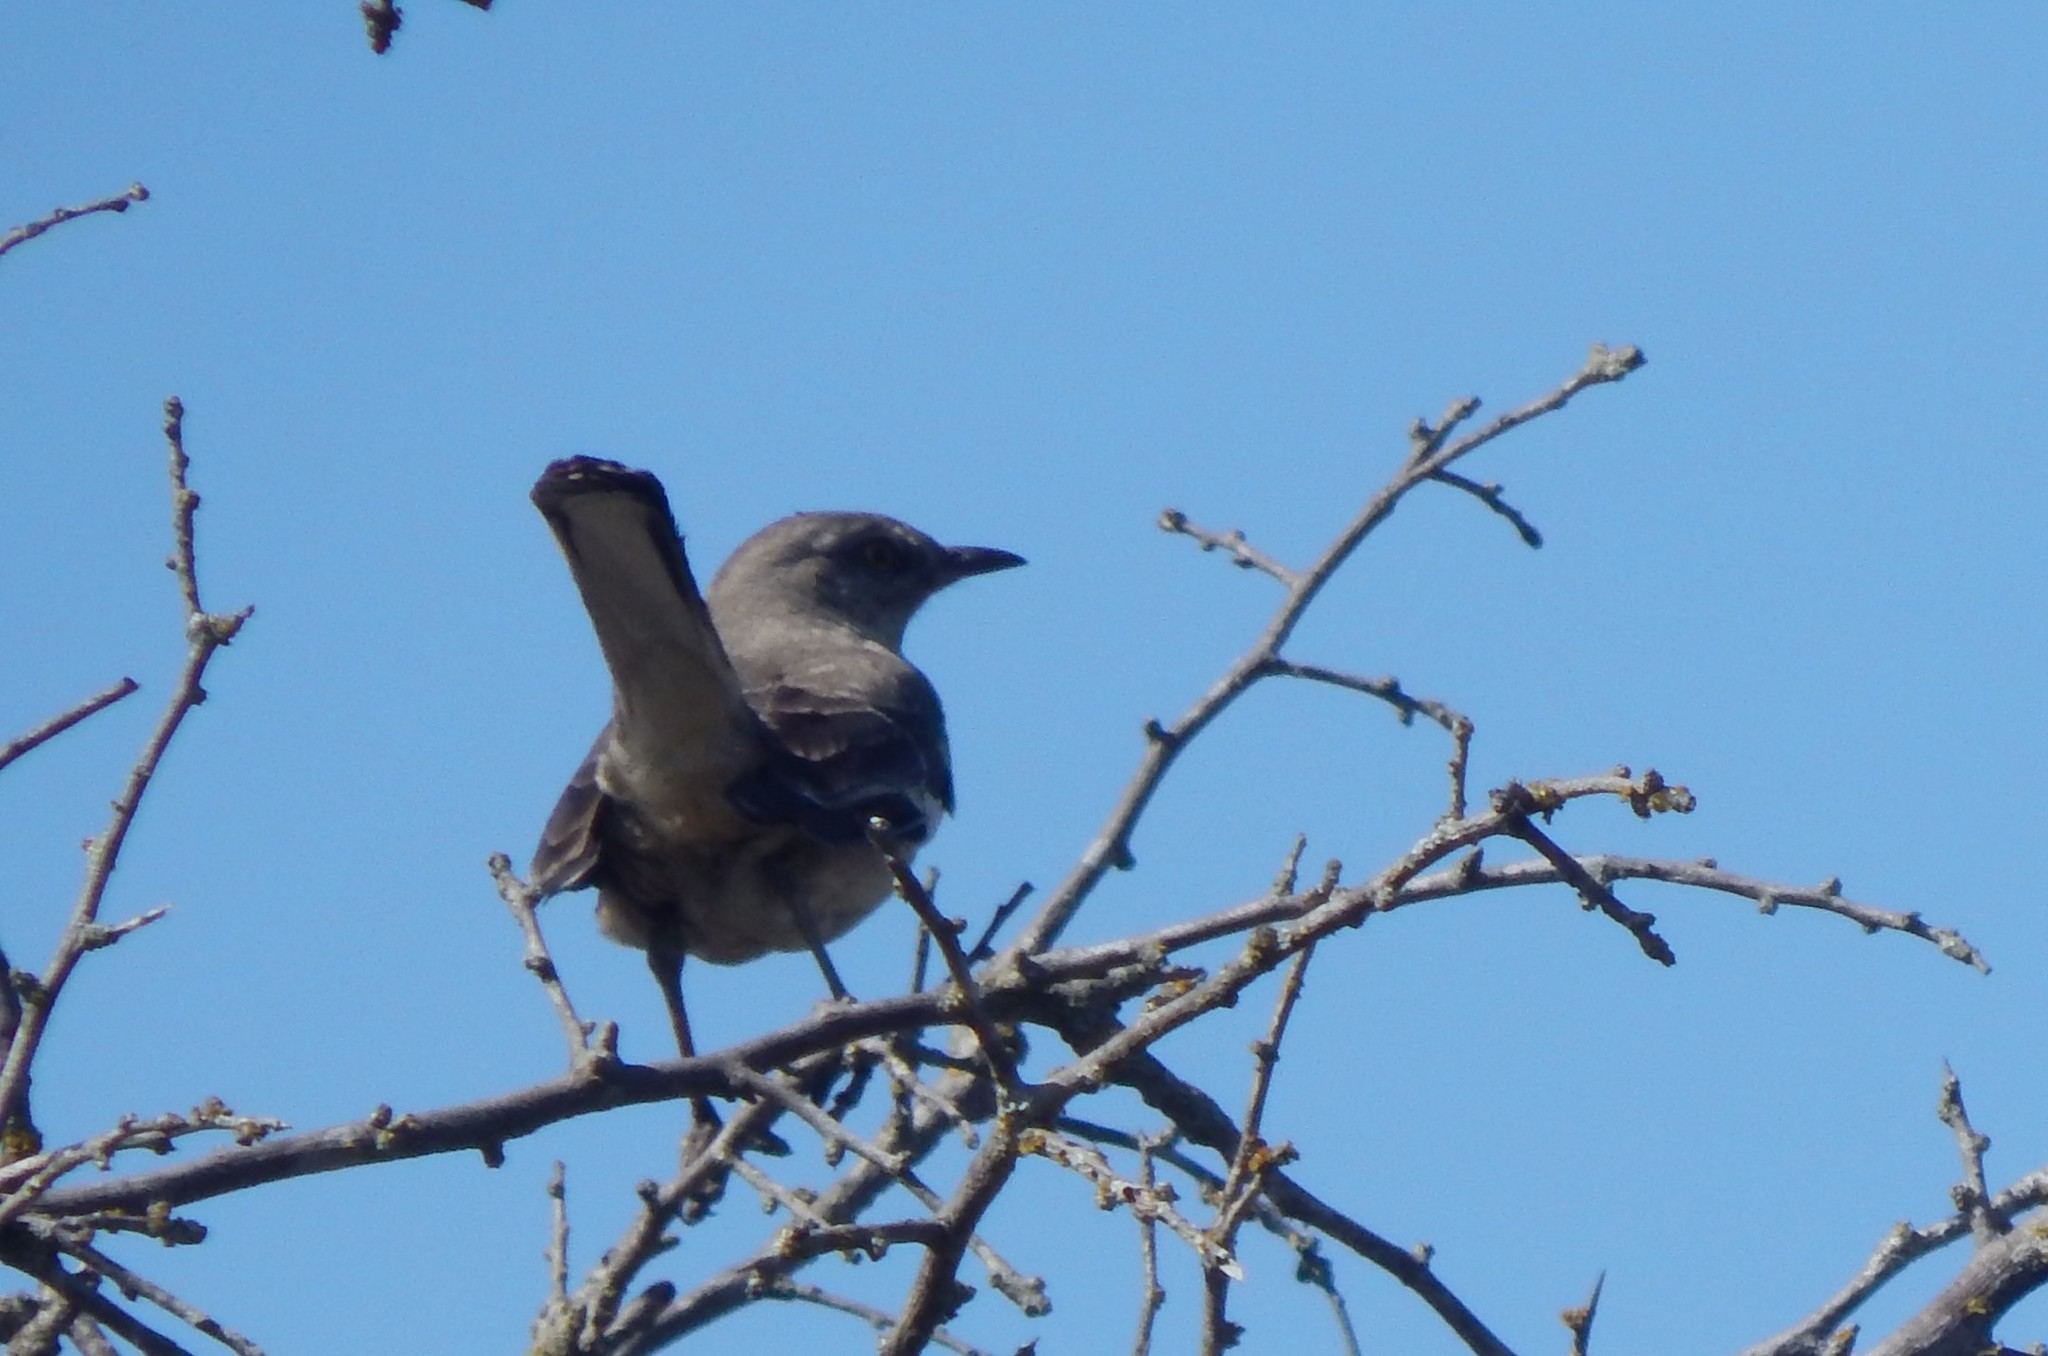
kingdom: Animalia
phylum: Chordata
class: Aves
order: Passeriformes
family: Mimidae
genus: Mimus
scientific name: Mimus polyglottos
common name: Northern mockingbird
